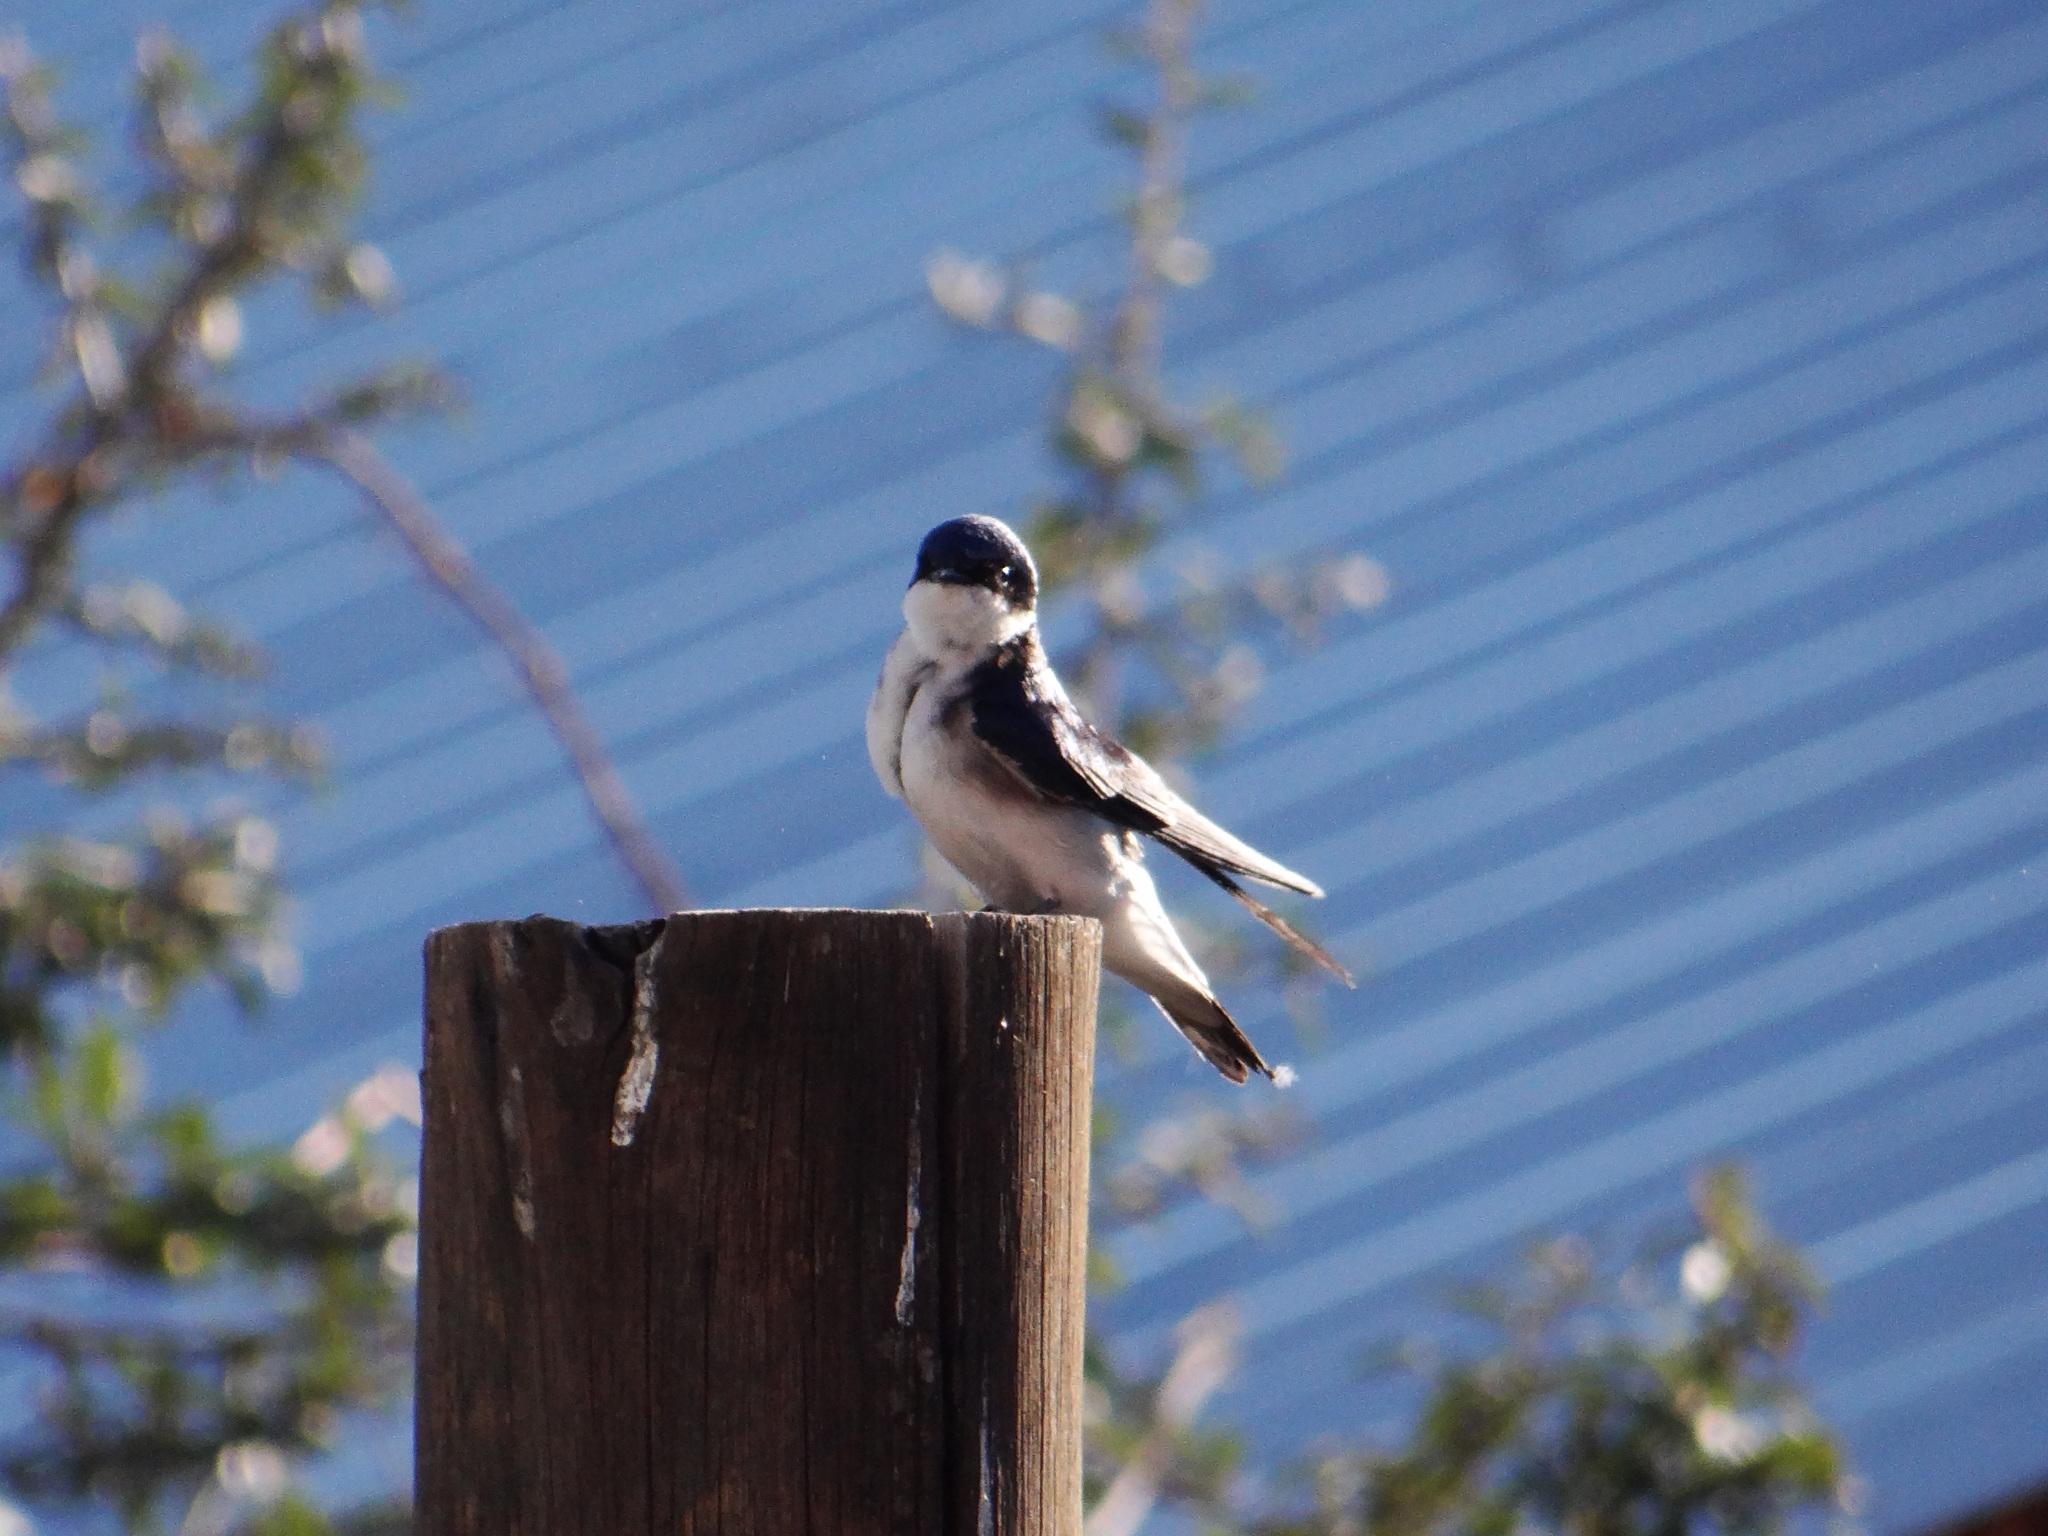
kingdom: Animalia
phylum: Chordata
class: Aves
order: Passeriformes
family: Hirundinidae
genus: Tachycineta
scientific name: Tachycineta leucopyga
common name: Chilean swallow
